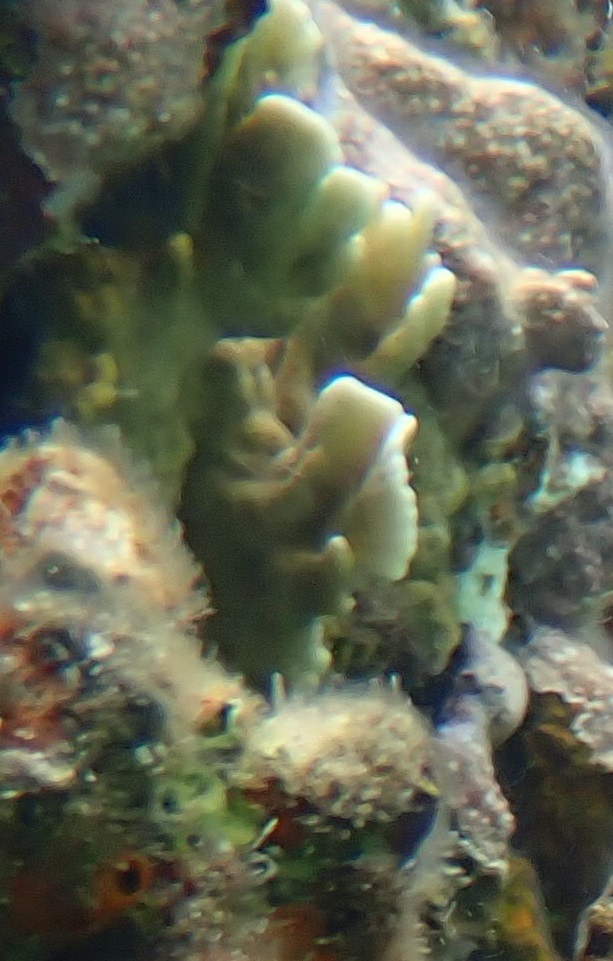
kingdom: Animalia
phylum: Cnidaria
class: Hydrozoa
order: Anthoathecata
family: Milleporidae
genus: Millepora
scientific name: Millepora complanata
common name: Bladed fire coral
